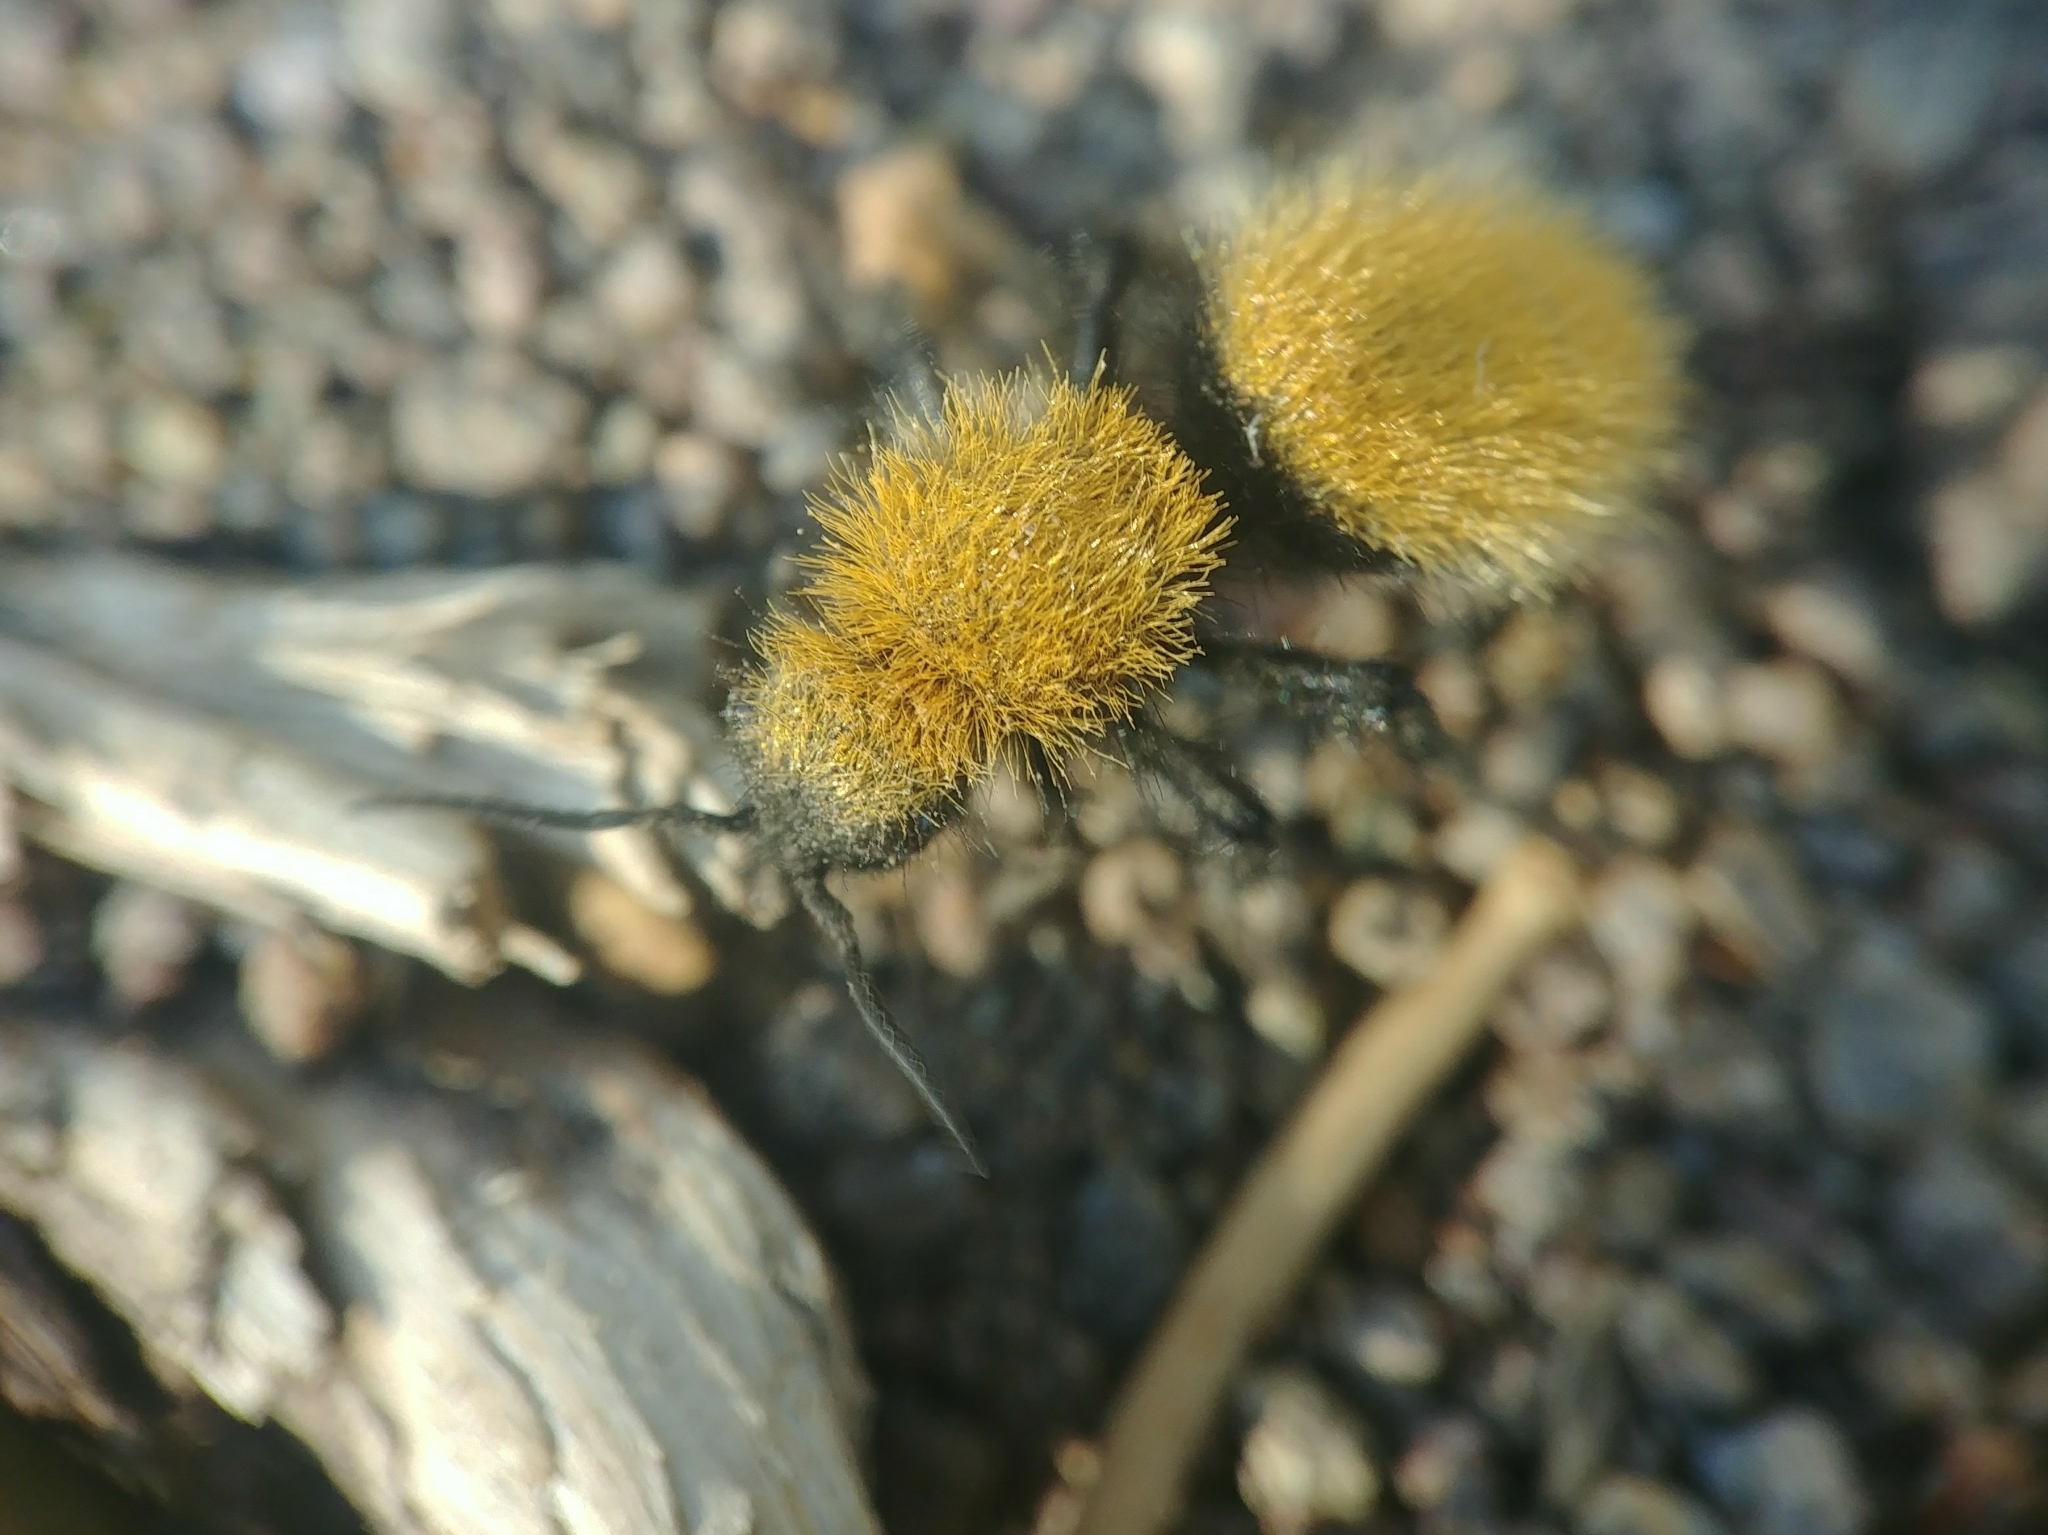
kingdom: Animalia
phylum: Arthropoda
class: Insecta
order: Hymenoptera
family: Mutillidae
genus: Dasymutilla
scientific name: Dasymutilla vestita
